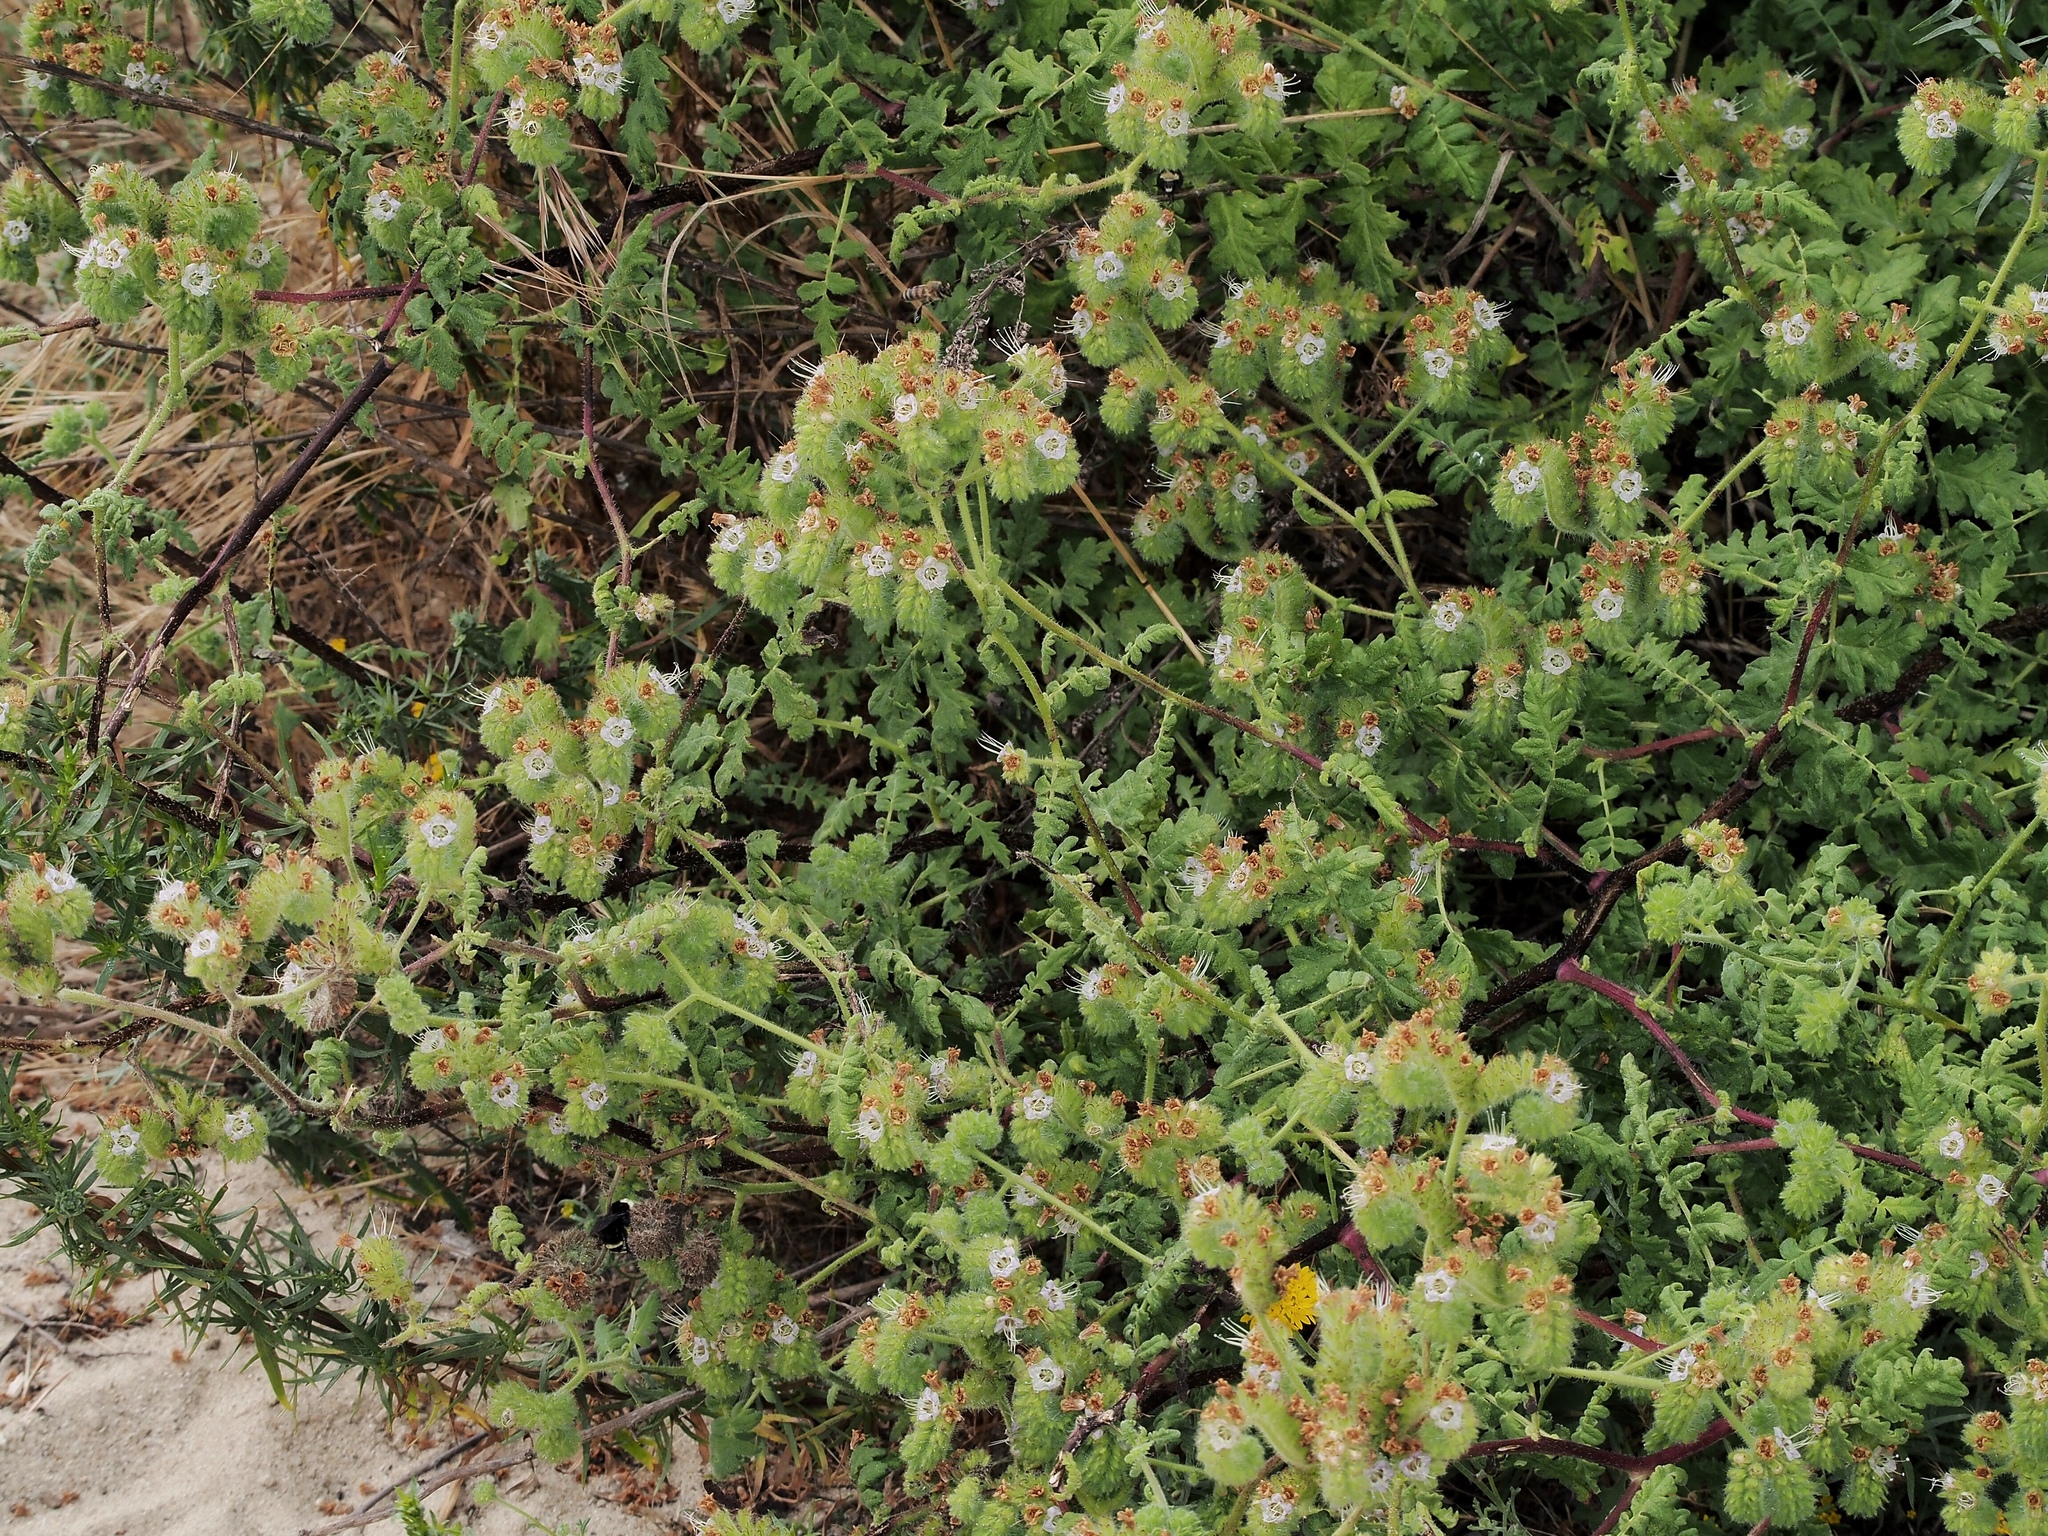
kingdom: Plantae
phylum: Tracheophyta
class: Magnoliopsida
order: Boraginales
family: Hydrophyllaceae
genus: Phacelia
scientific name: Phacelia ramosissima
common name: Branching phacelia
